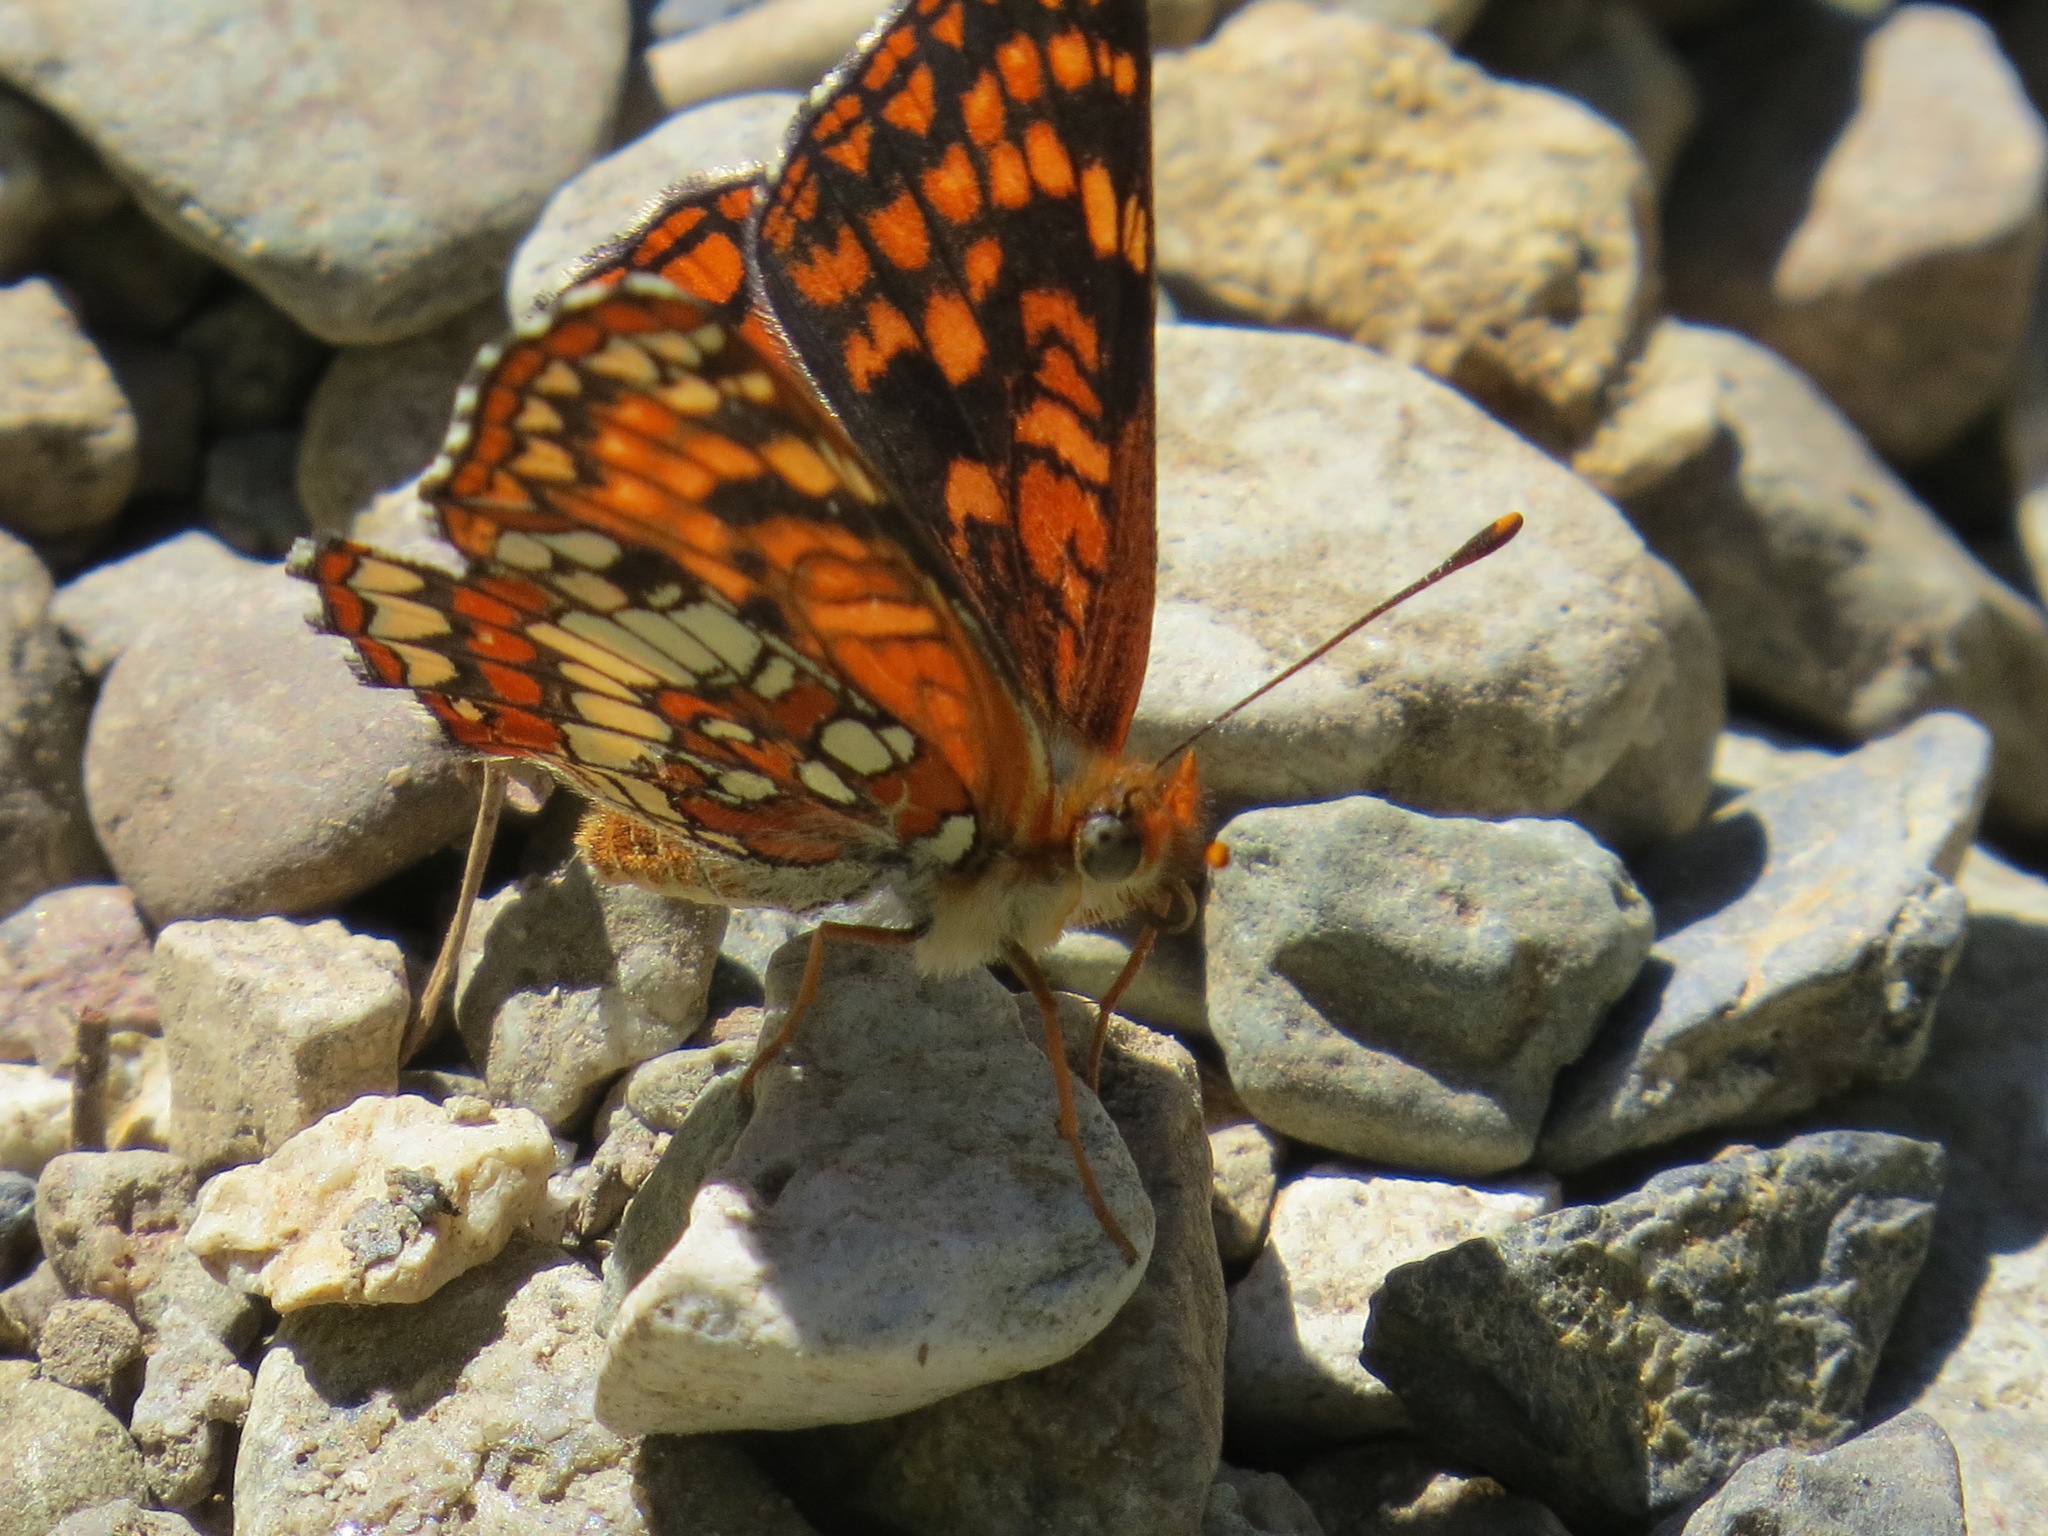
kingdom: Animalia
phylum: Arthropoda
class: Insecta
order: Lepidoptera
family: Nymphalidae
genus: Chlosyne
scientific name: Chlosyne palla
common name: Northern checkerspot
